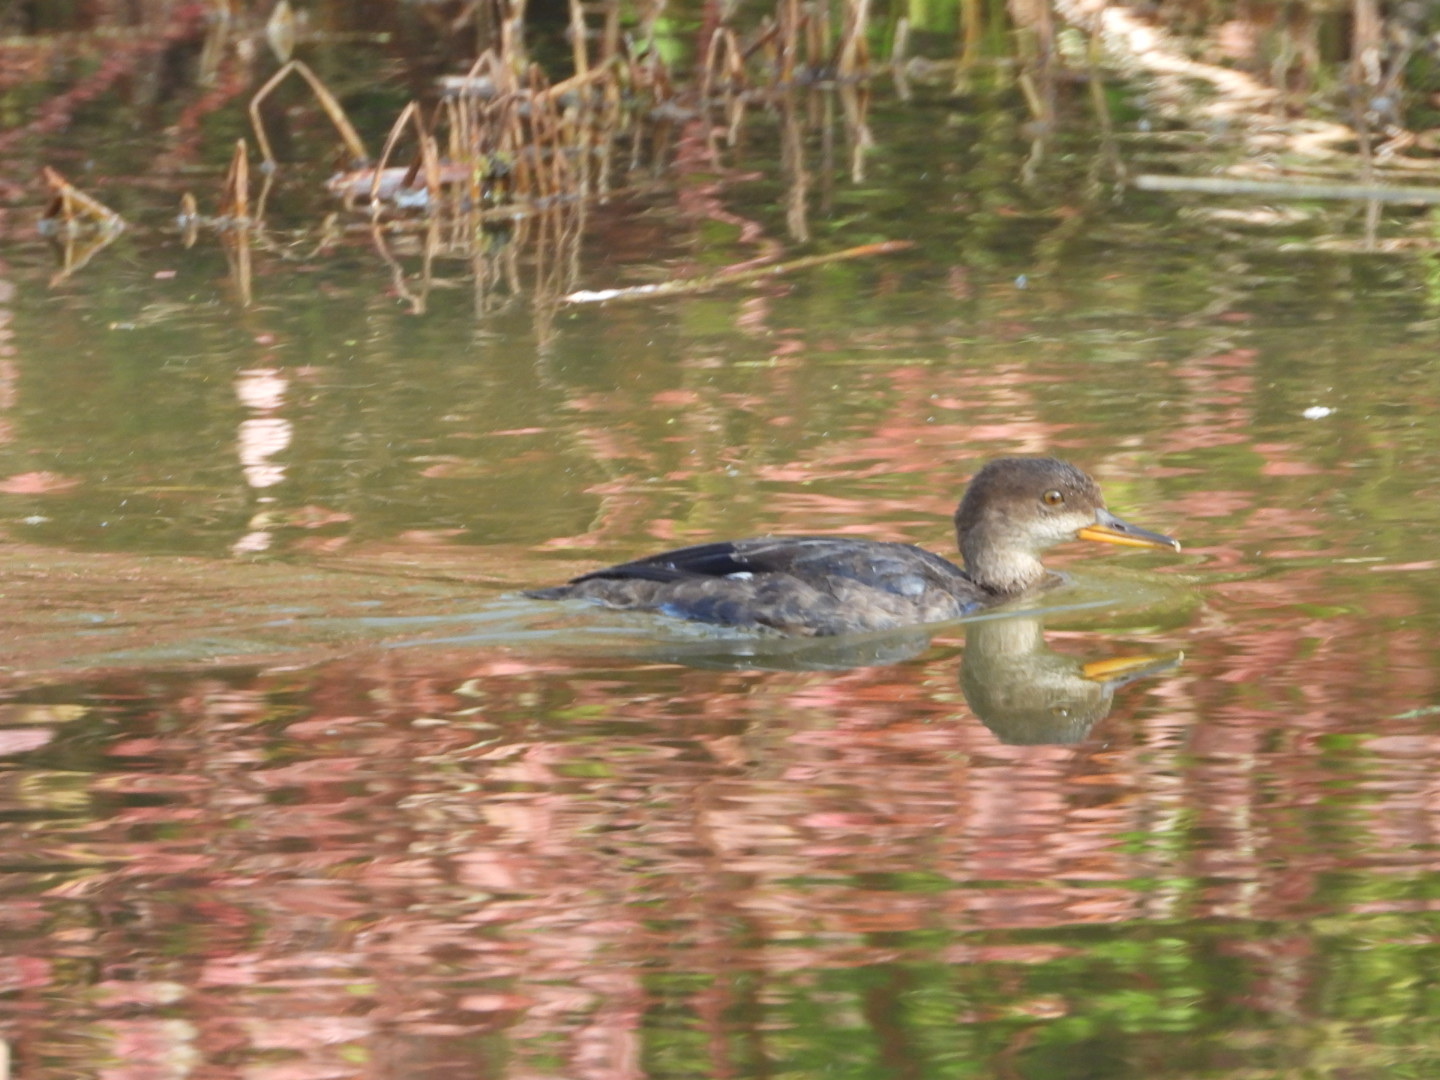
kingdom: Animalia
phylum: Chordata
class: Aves
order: Anseriformes
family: Anatidae
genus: Lophodytes
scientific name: Lophodytes cucullatus
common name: Hooded merganser
